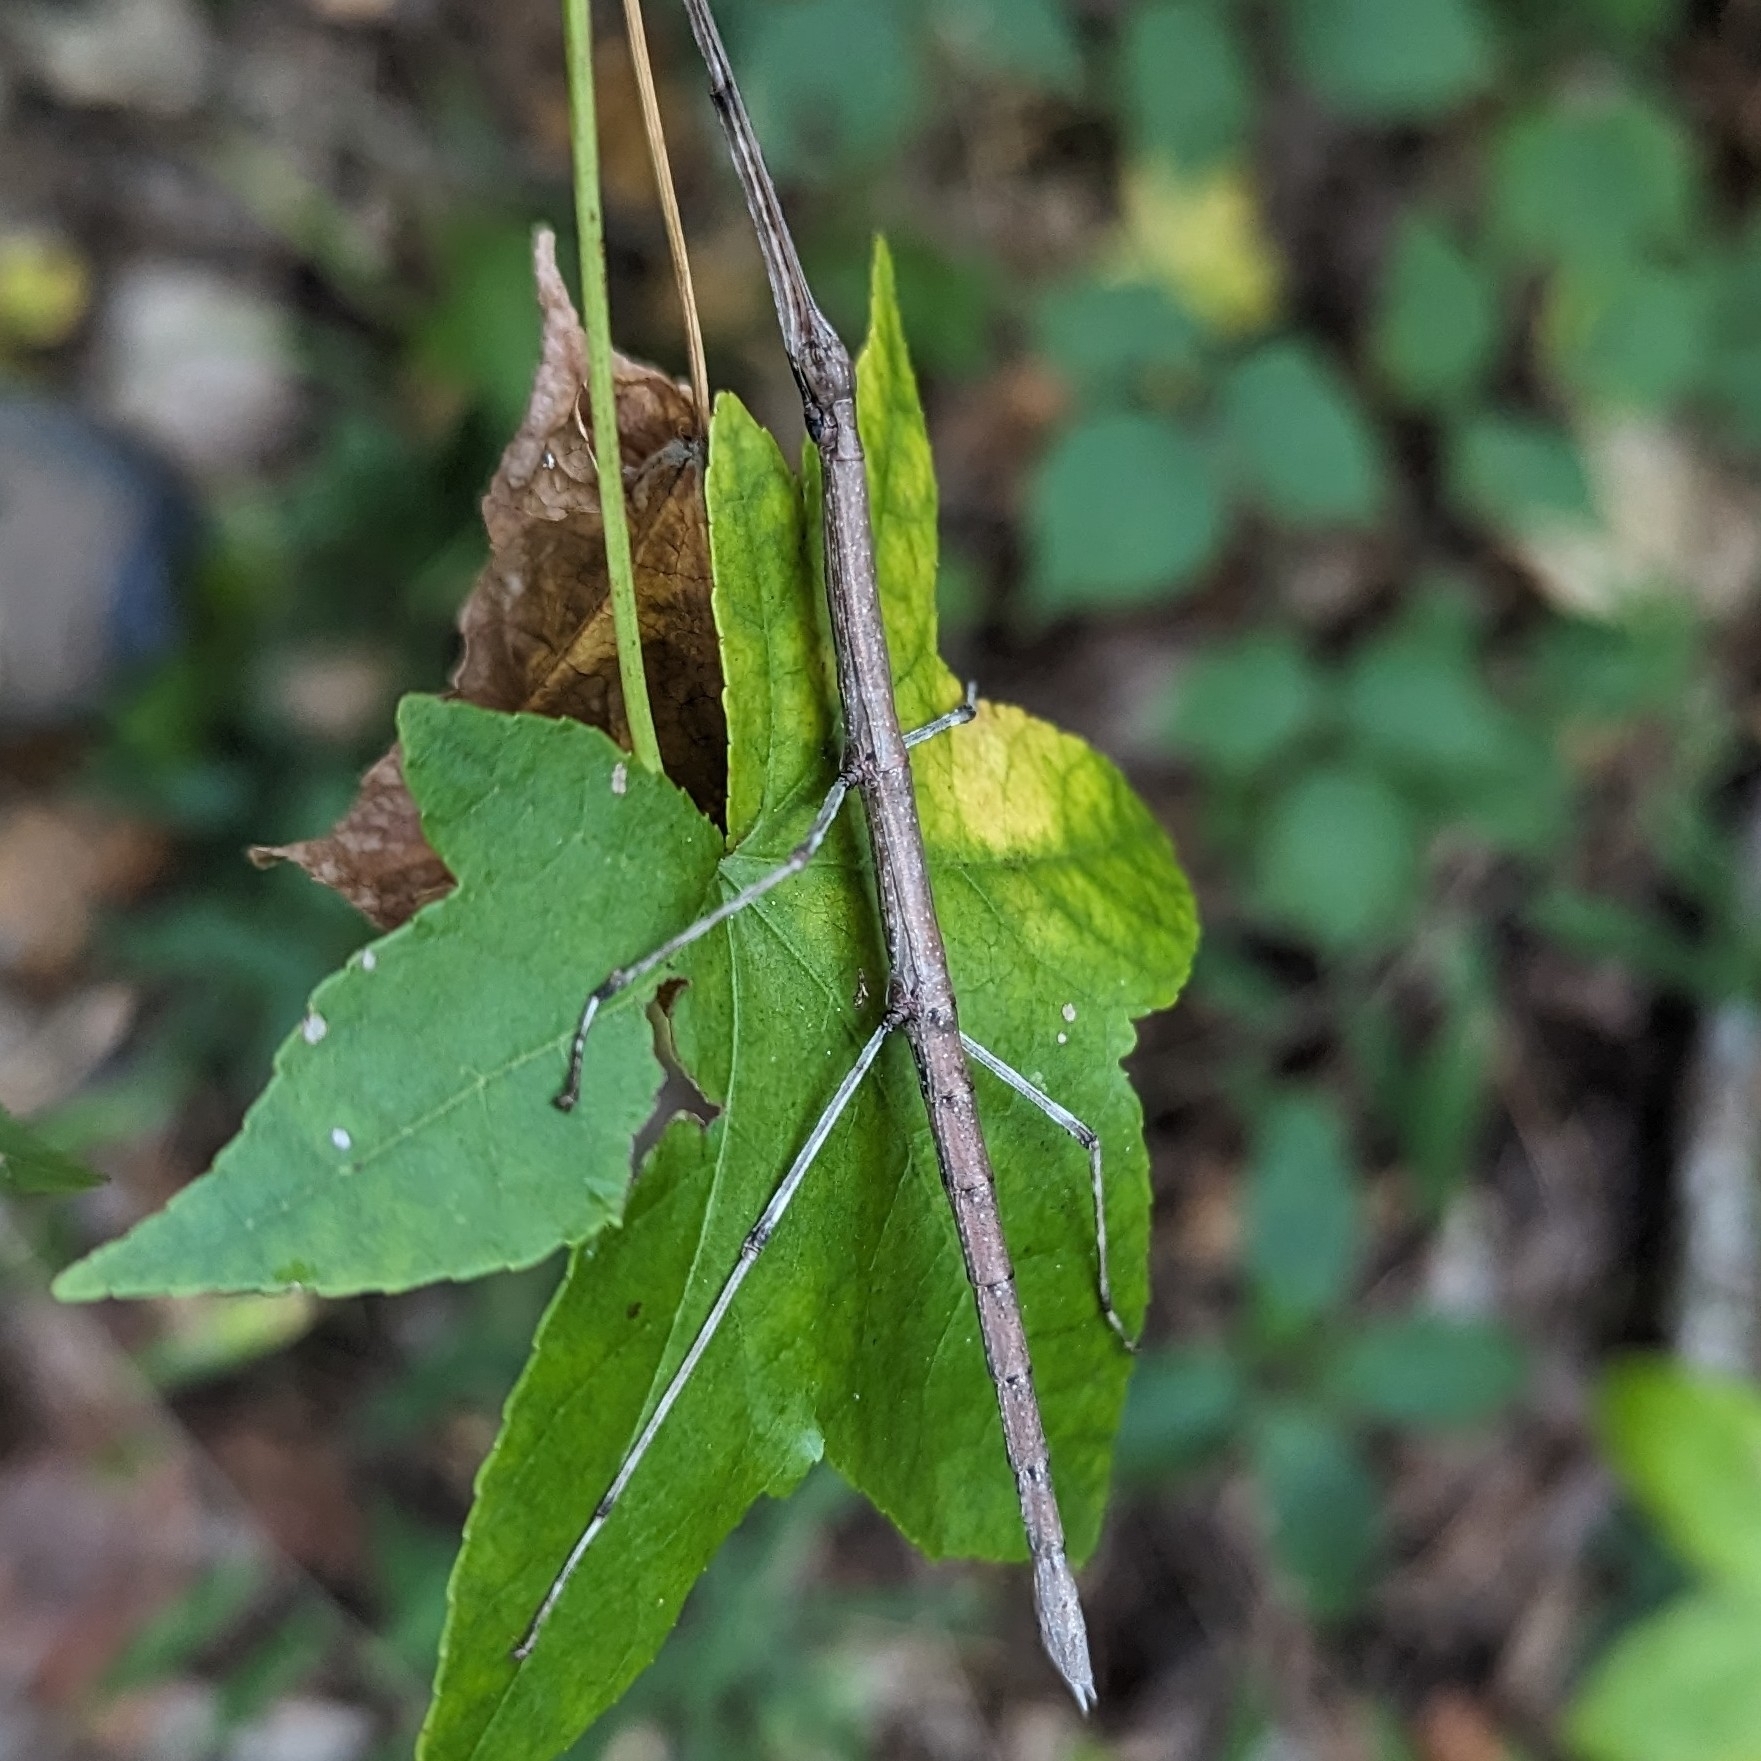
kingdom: Animalia
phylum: Arthropoda
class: Insecta
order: Phasmida
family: Diapheromeridae
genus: Diapheromera
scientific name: Diapheromera femorata
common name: Common american walkingstick
